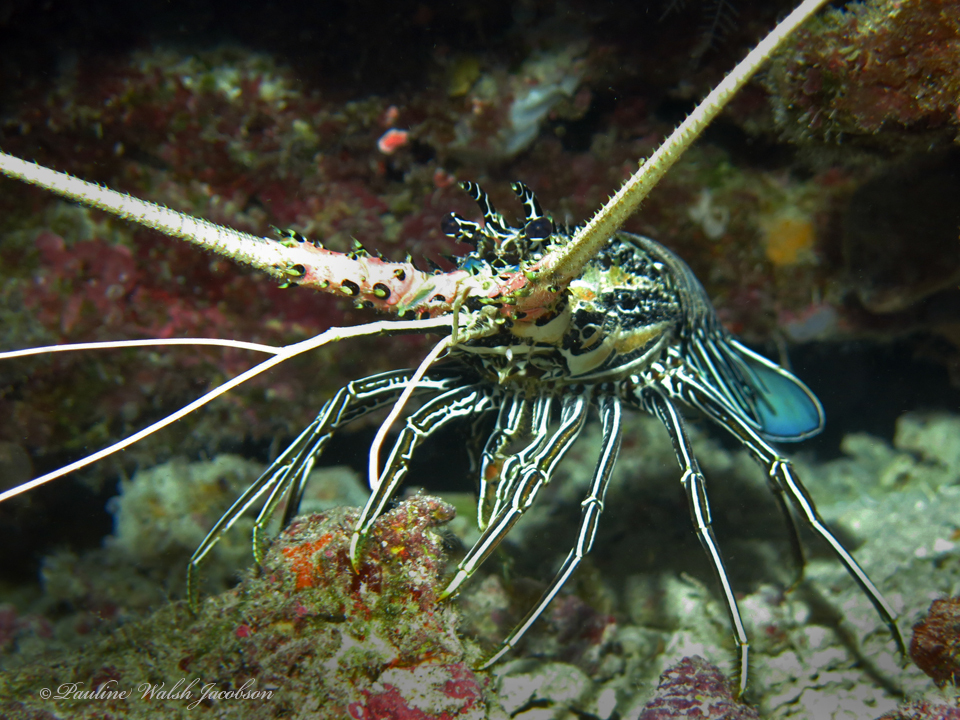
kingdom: Animalia
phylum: Arthropoda
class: Malacostraca
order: Decapoda
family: Palinuridae
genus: Panulirus
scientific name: Panulirus versicolor
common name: Painted spiny lobster
